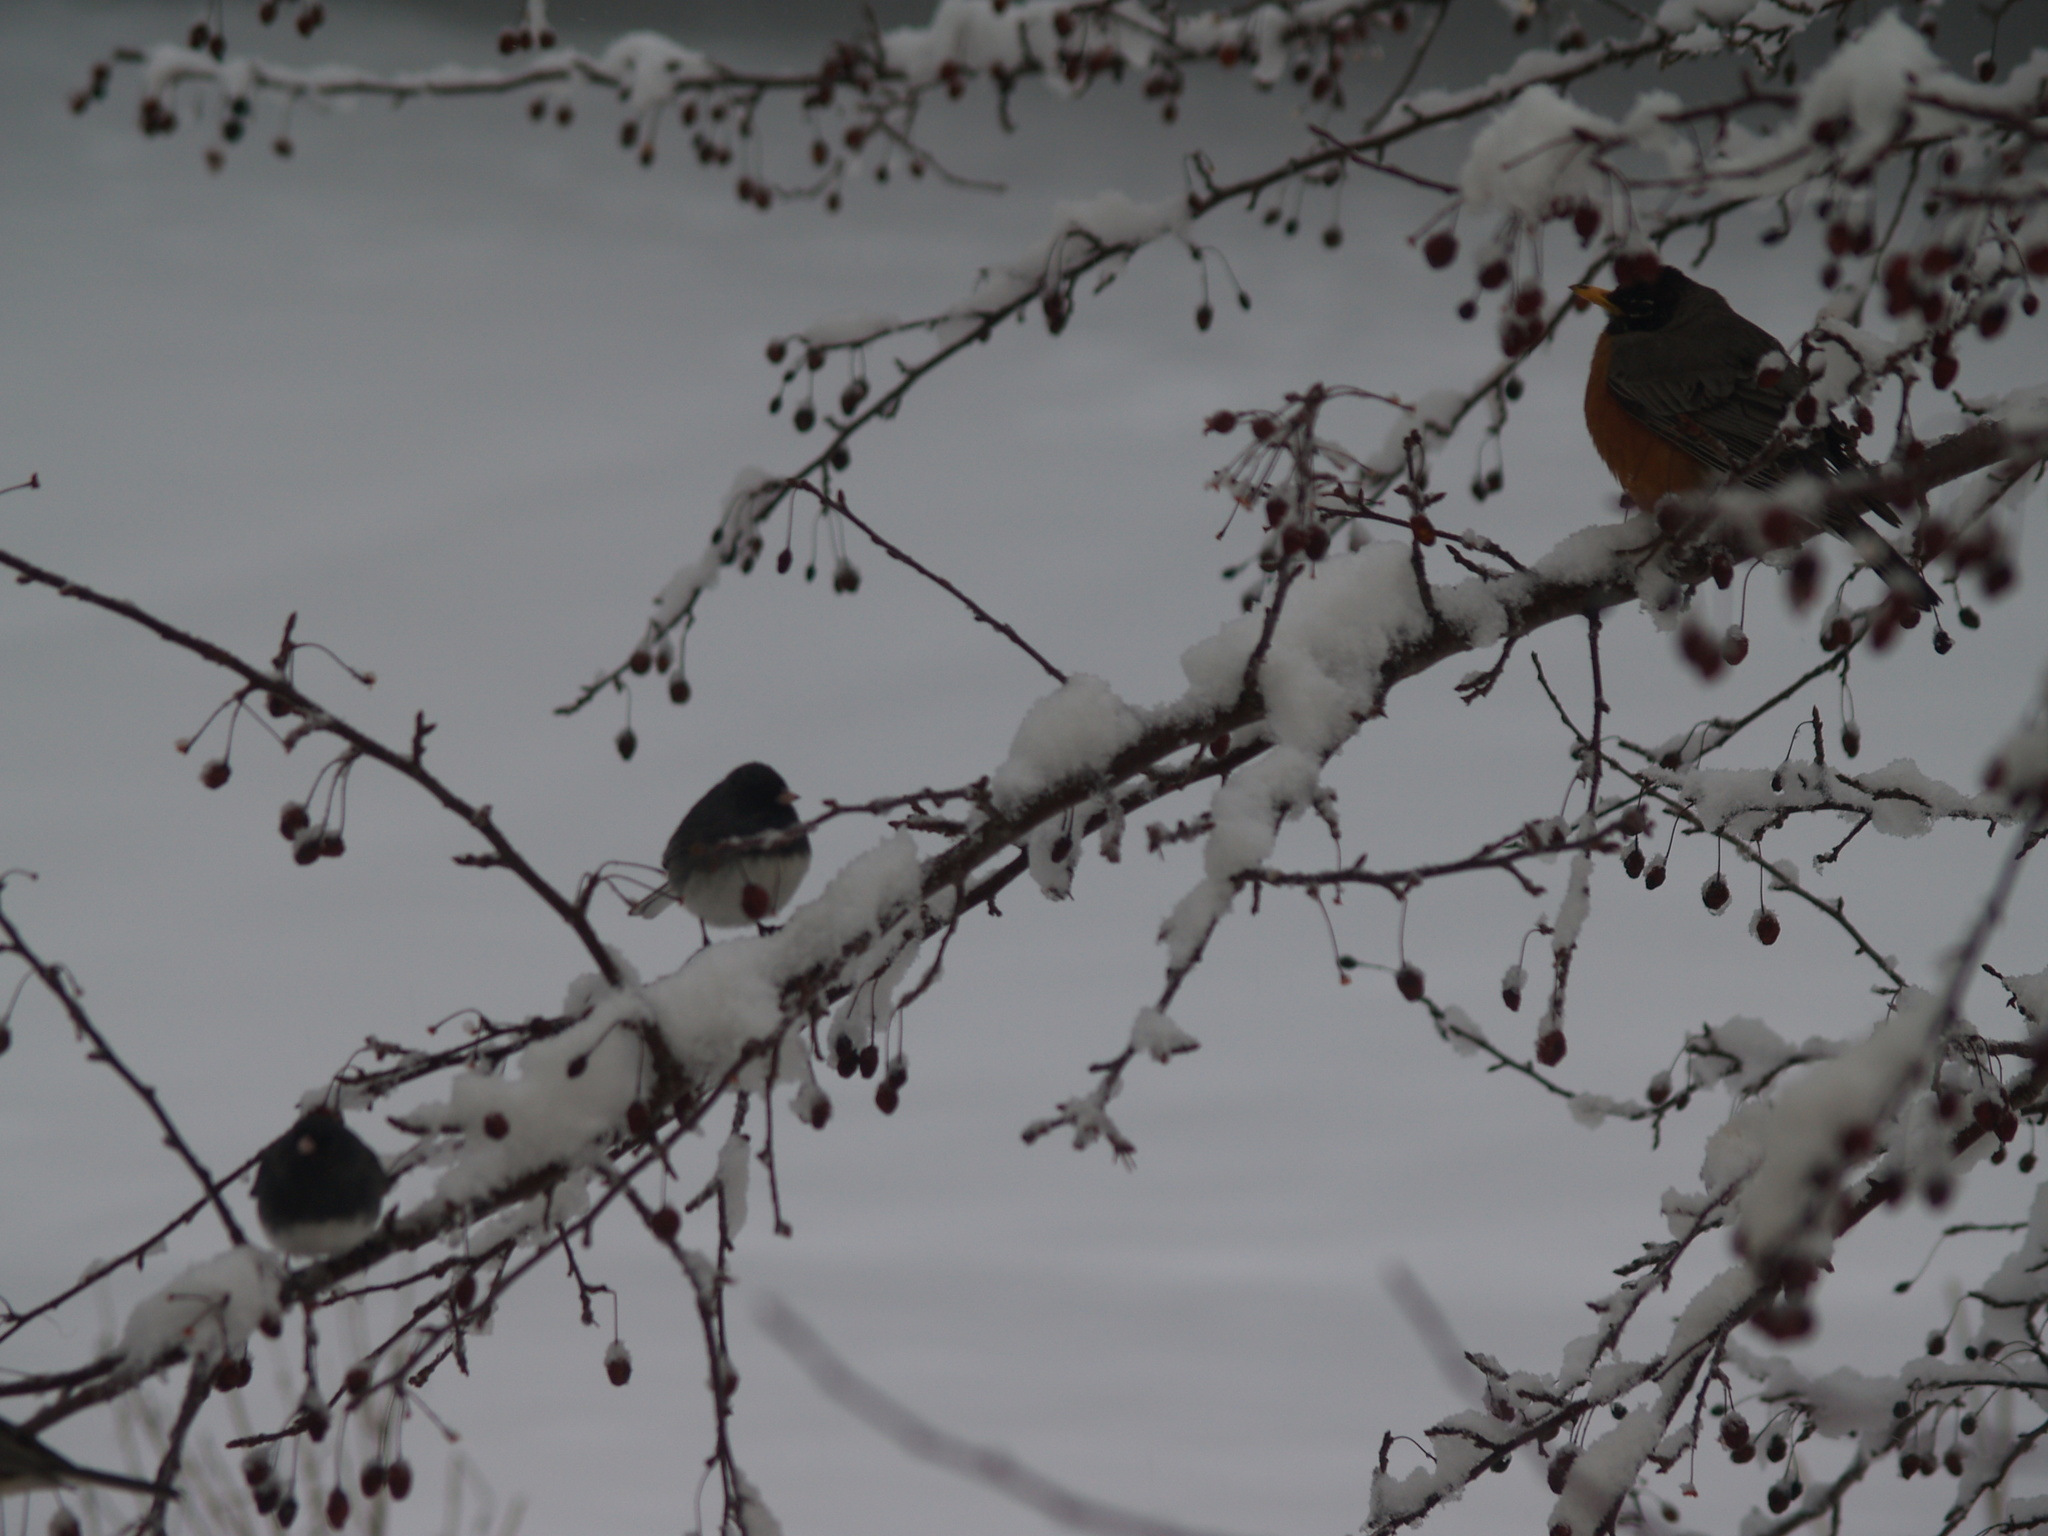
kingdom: Animalia
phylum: Chordata
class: Aves
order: Passeriformes
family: Turdidae
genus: Turdus
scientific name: Turdus migratorius
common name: American robin
